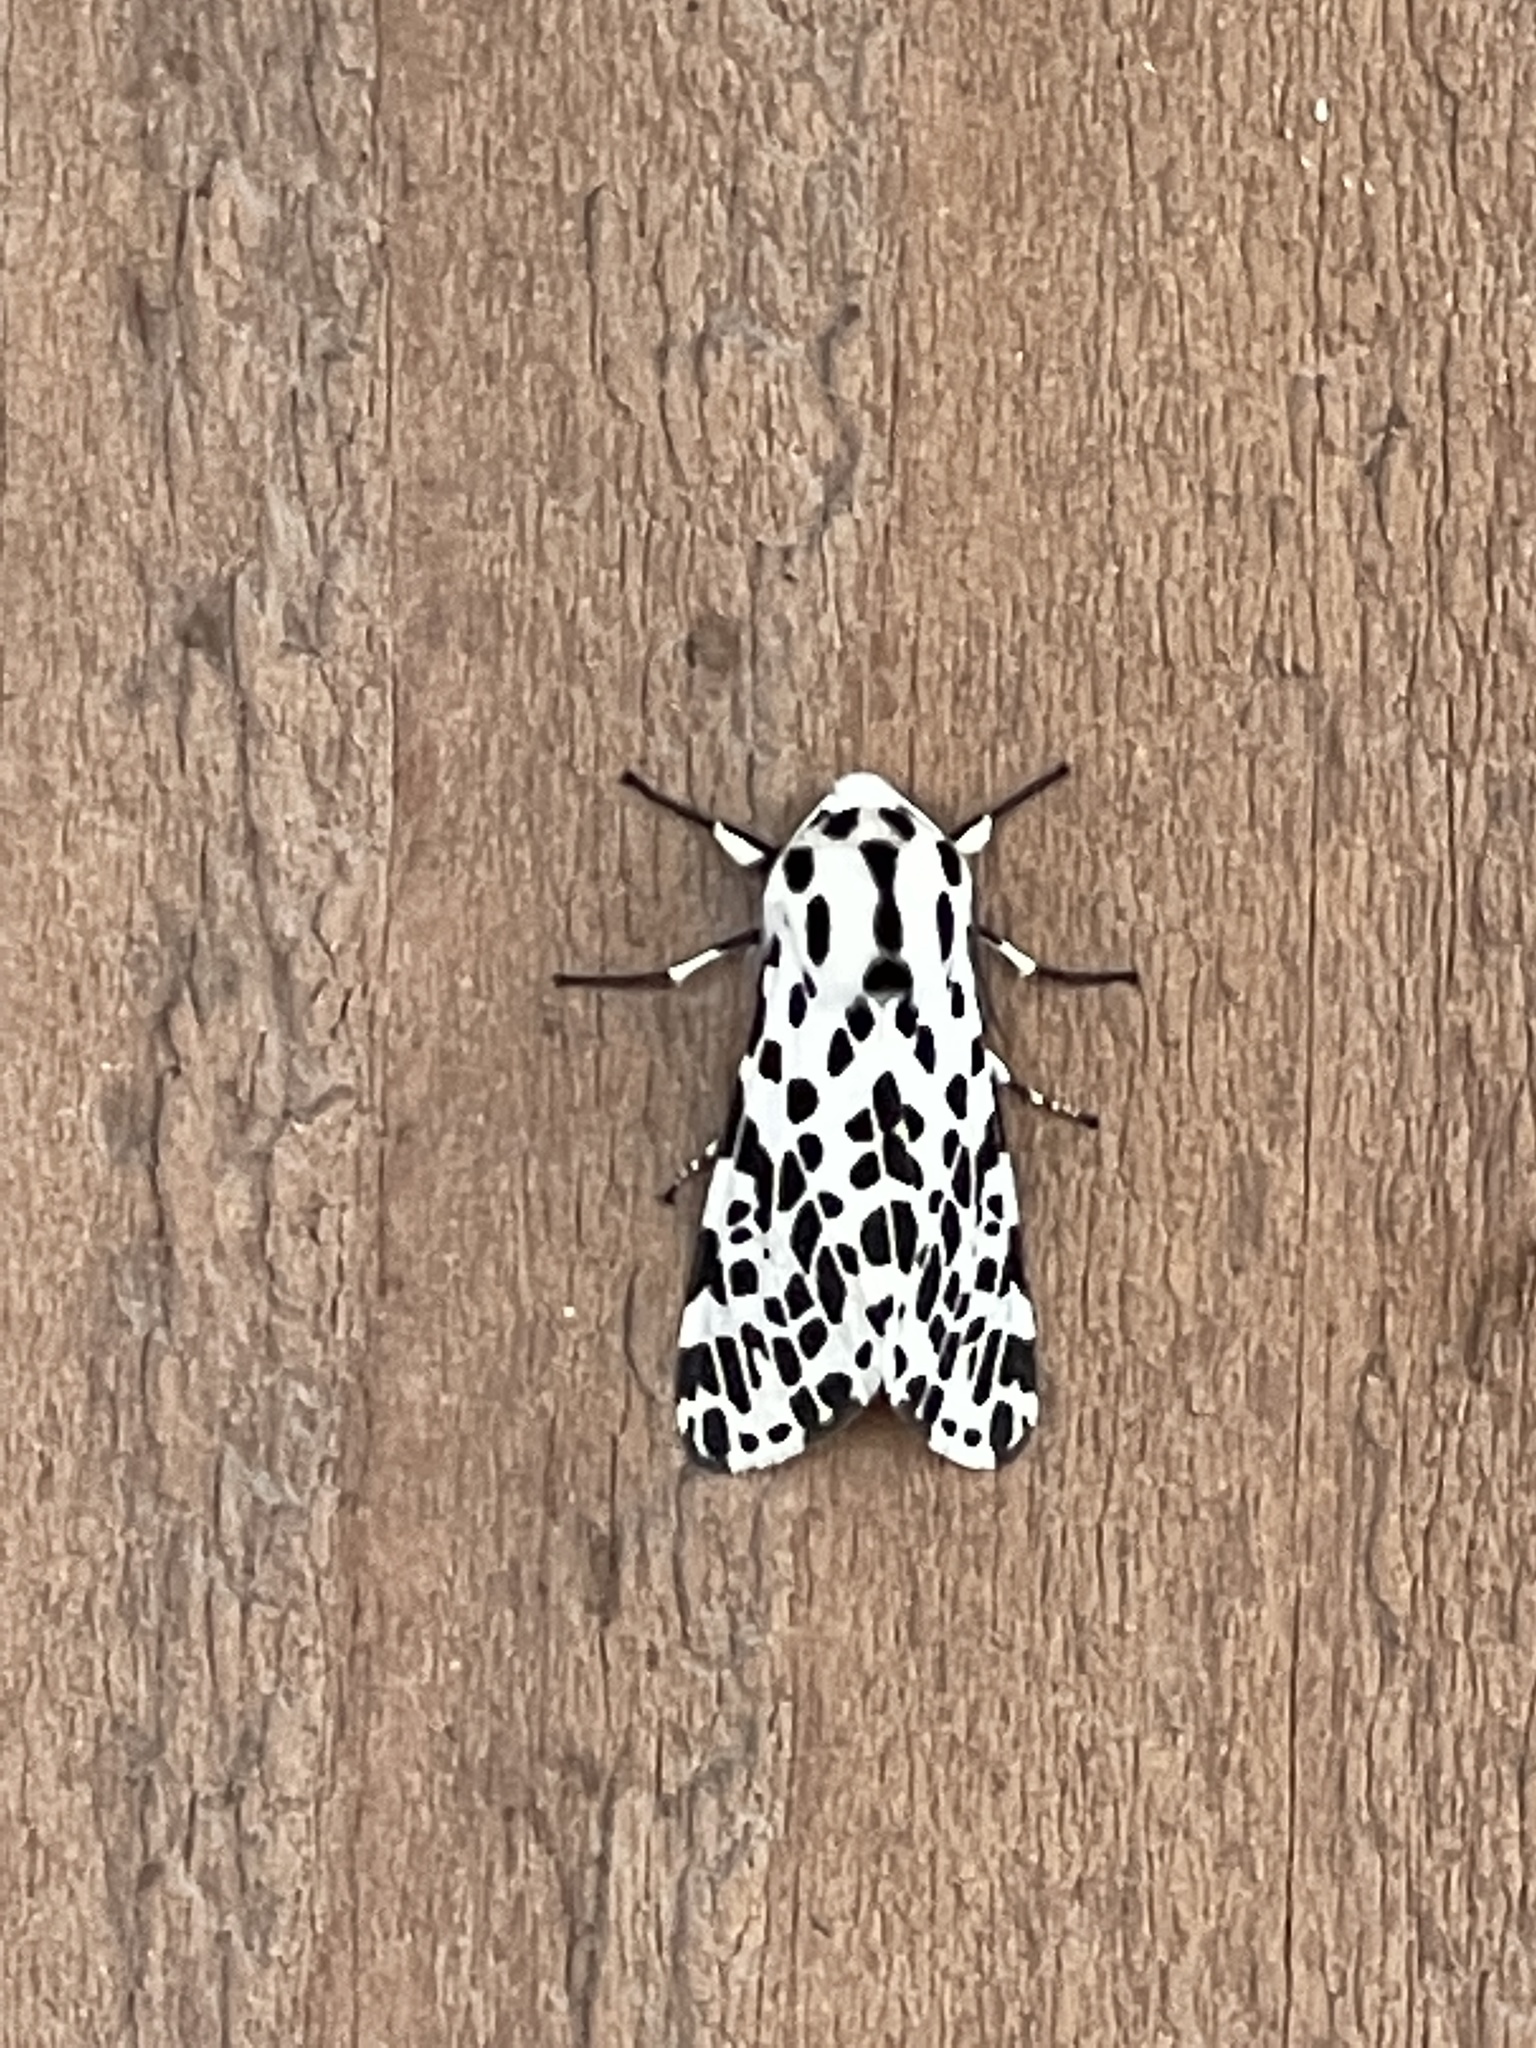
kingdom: Animalia
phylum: Arthropoda
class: Insecta
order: Lepidoptera
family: Erebidae
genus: Hypercompe
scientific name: Hypercompe permaculata
